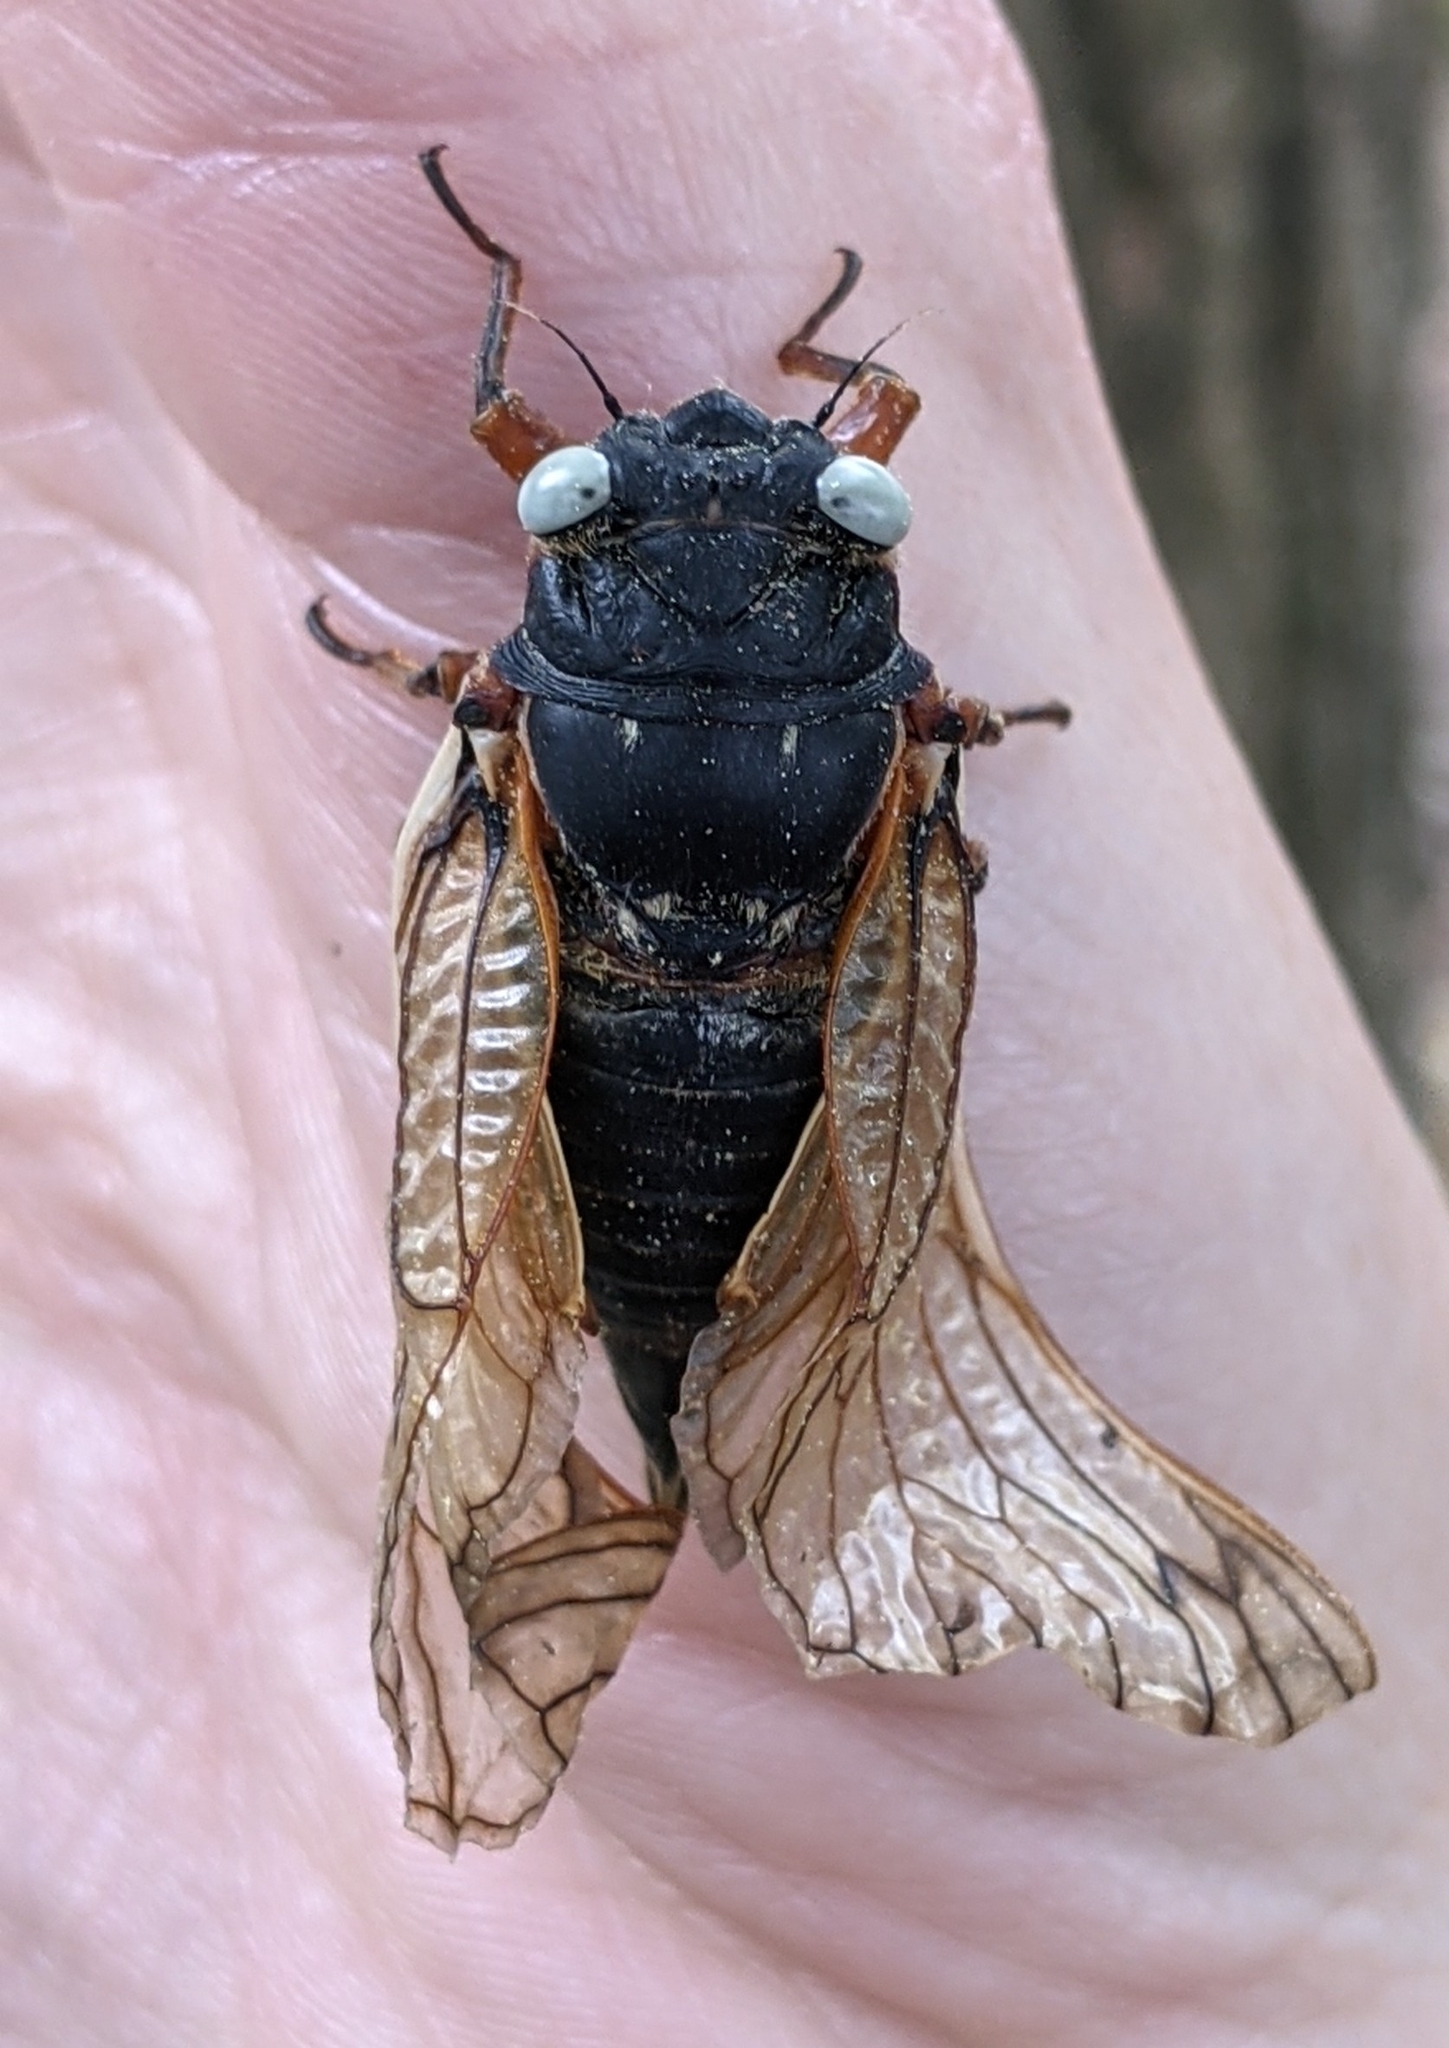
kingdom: Animalia
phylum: Arthropoda
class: Insecta
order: Hemiptera
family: Cicadidae
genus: Magicicada
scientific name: Magicicada
